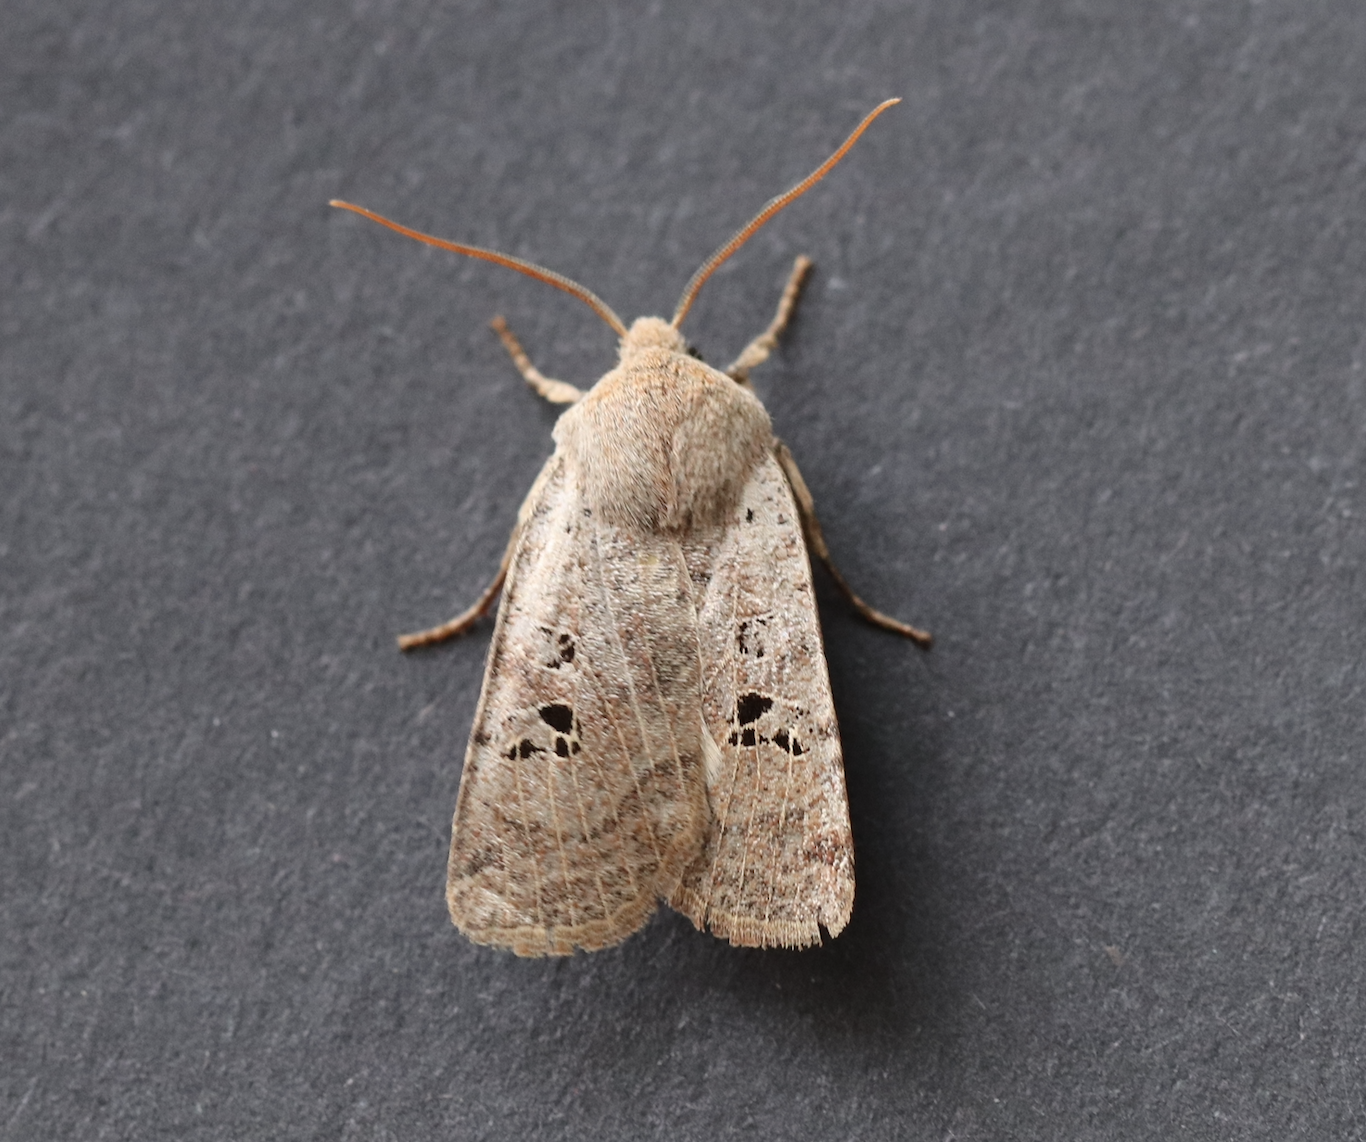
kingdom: Animalia
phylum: Arthropoda
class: Insecta
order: Lepidoptera
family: Noctuidae
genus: Conistra
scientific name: Conistra rubiginosa
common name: Black-spotted chestnut
